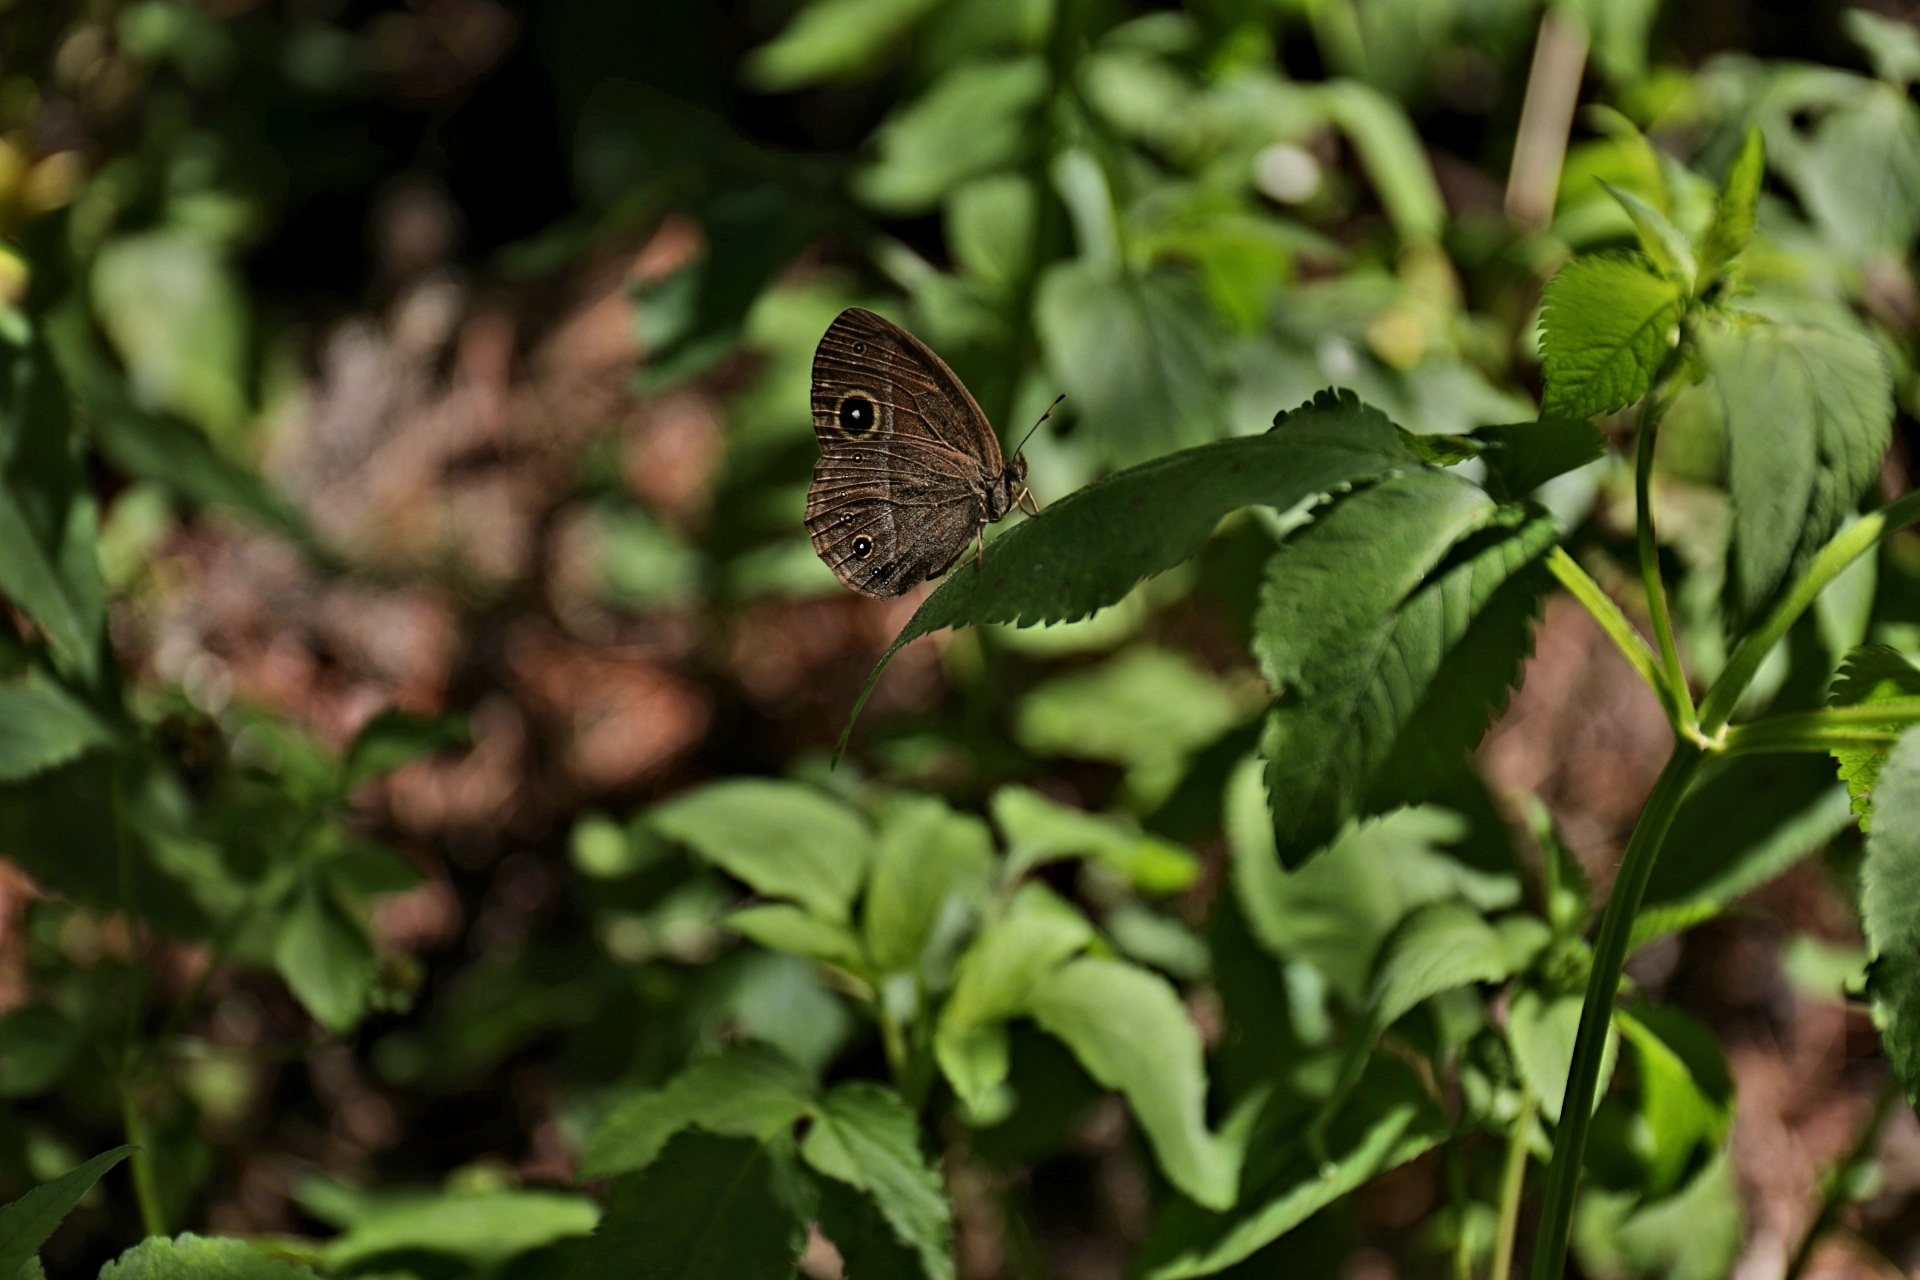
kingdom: Animalia
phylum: Arthropoda
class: Insecta
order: Lepidoptera
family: Nymphalidae
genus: Mycalesis
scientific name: Mycalesis francisca
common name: Lilacine bushbrown
